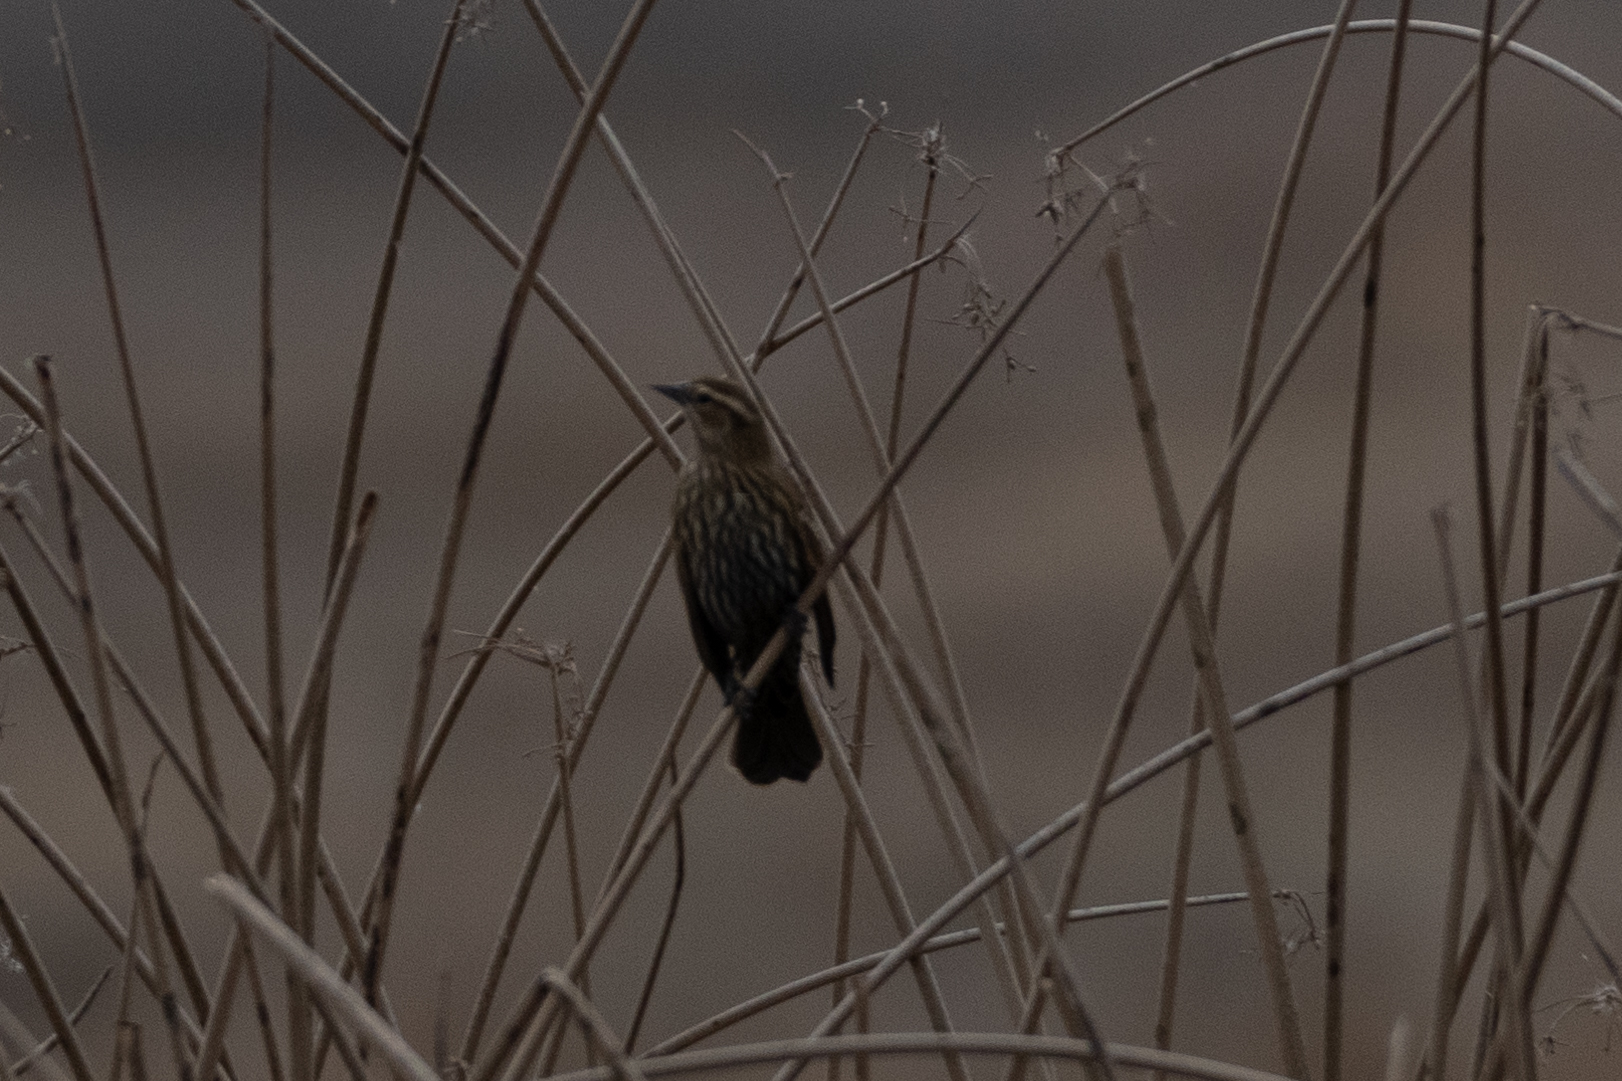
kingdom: Animalia
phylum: Chordata
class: Aves
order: Passeriformes
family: Icteridae
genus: Agelaius
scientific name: Agelaius phoeniceus
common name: Red-winged blackbird
